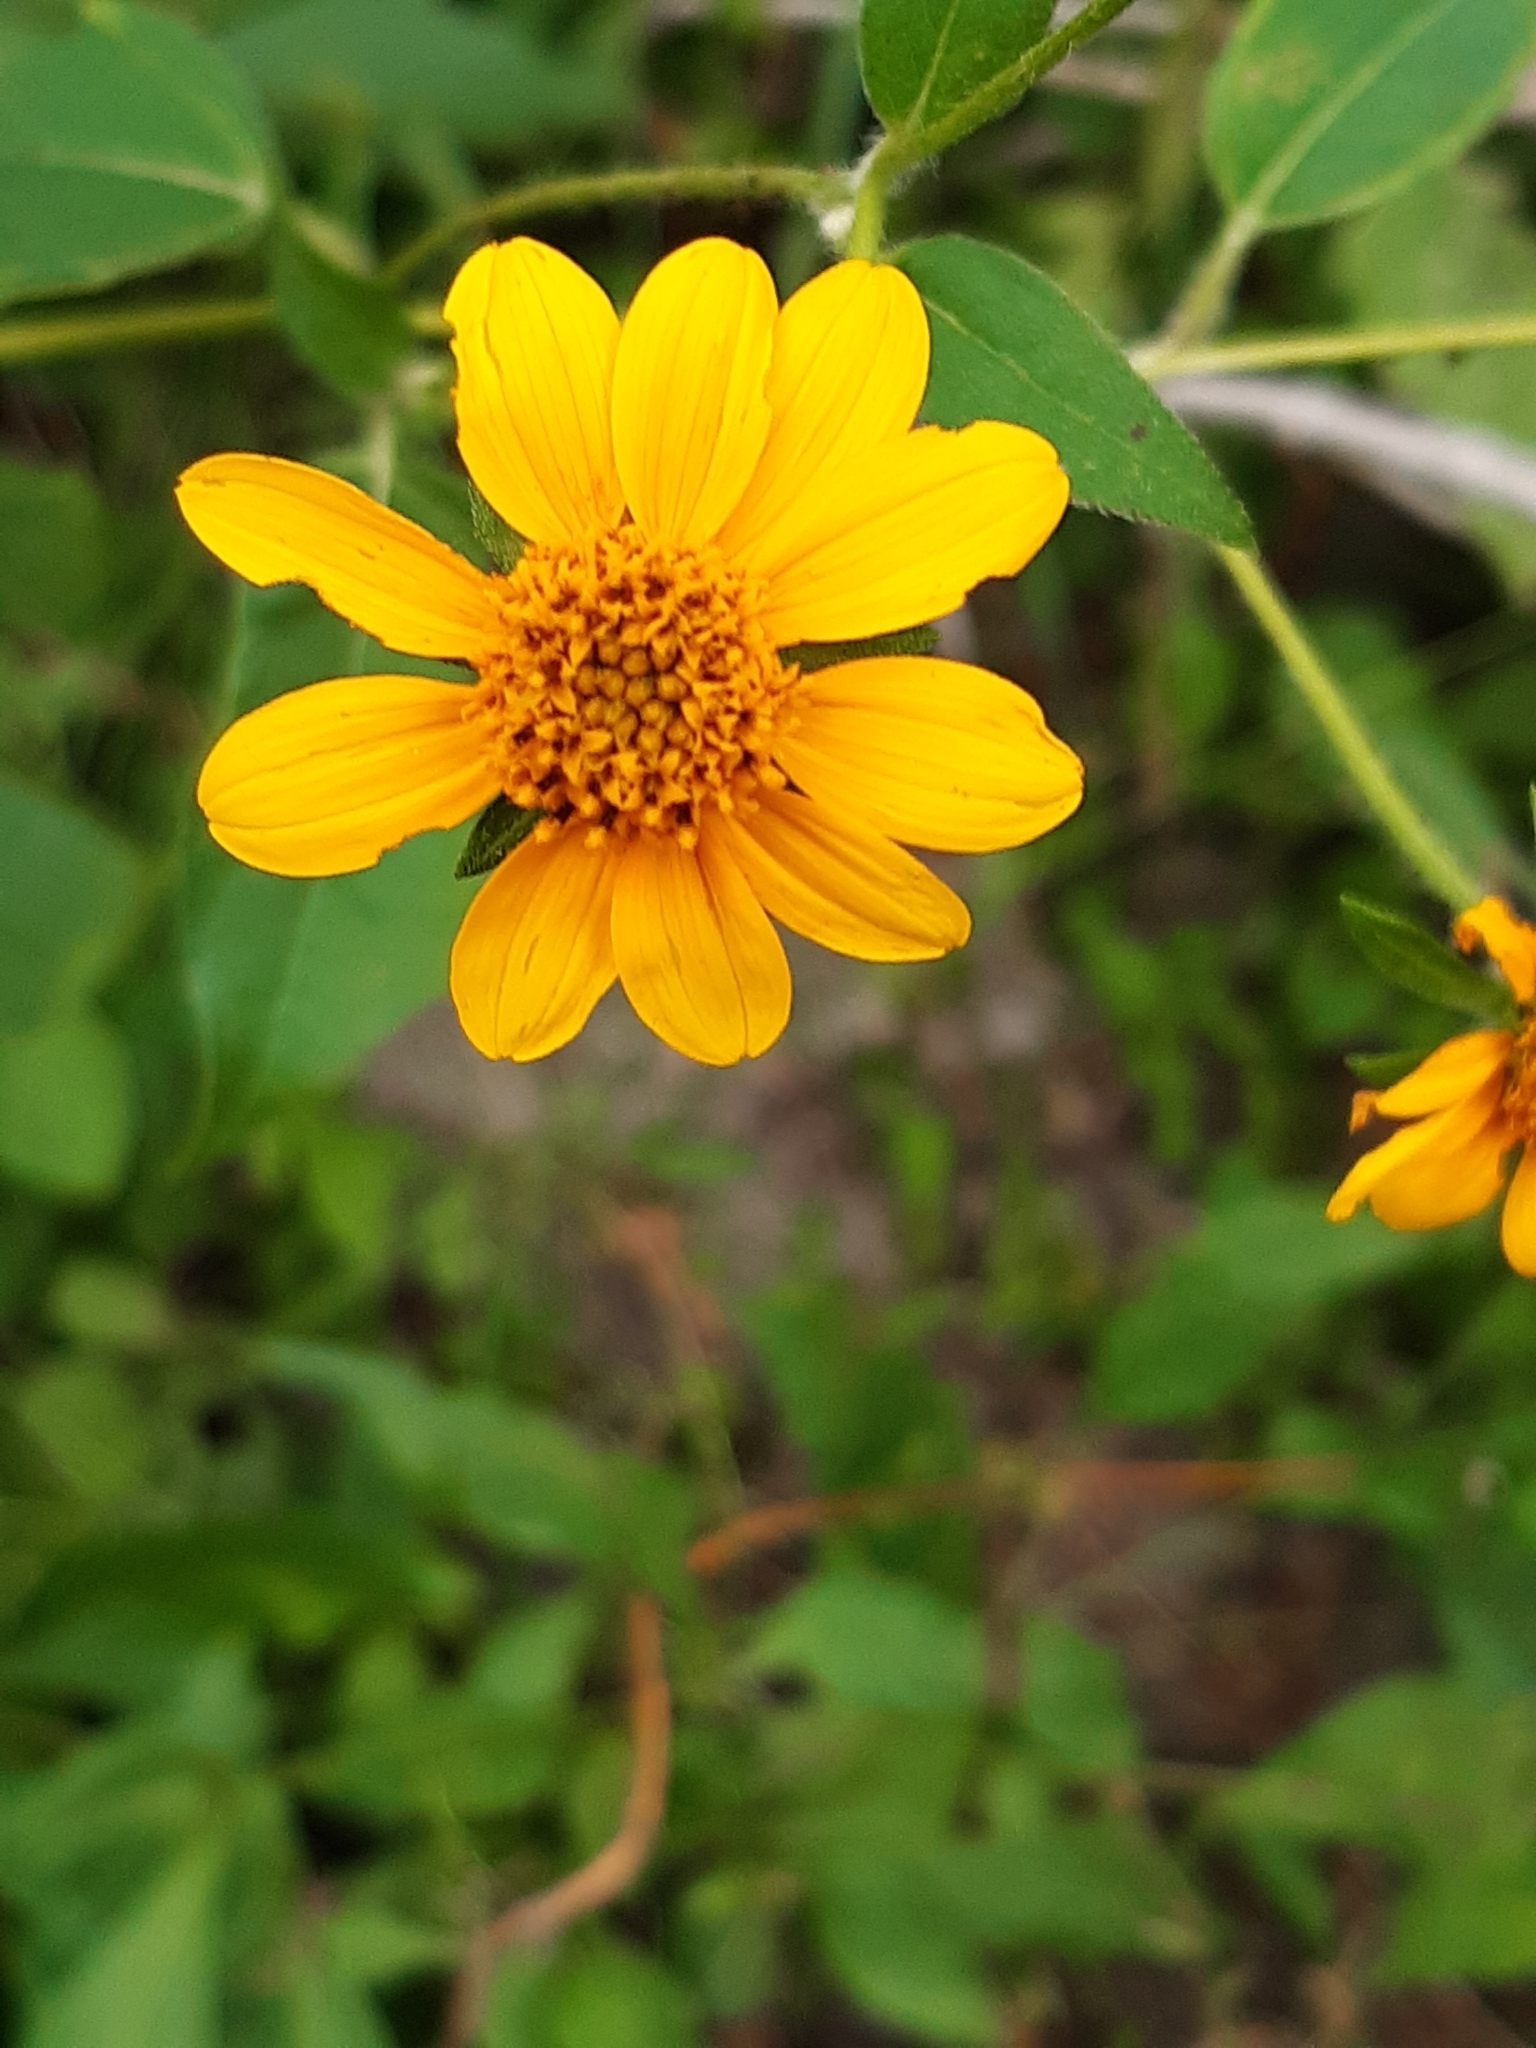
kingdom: Plantae
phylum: Tracheophyta
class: Magnoliopsida
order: Asterales
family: Asteraceae
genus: Viguiera
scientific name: Viguiera dentata
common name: Toothleaf
